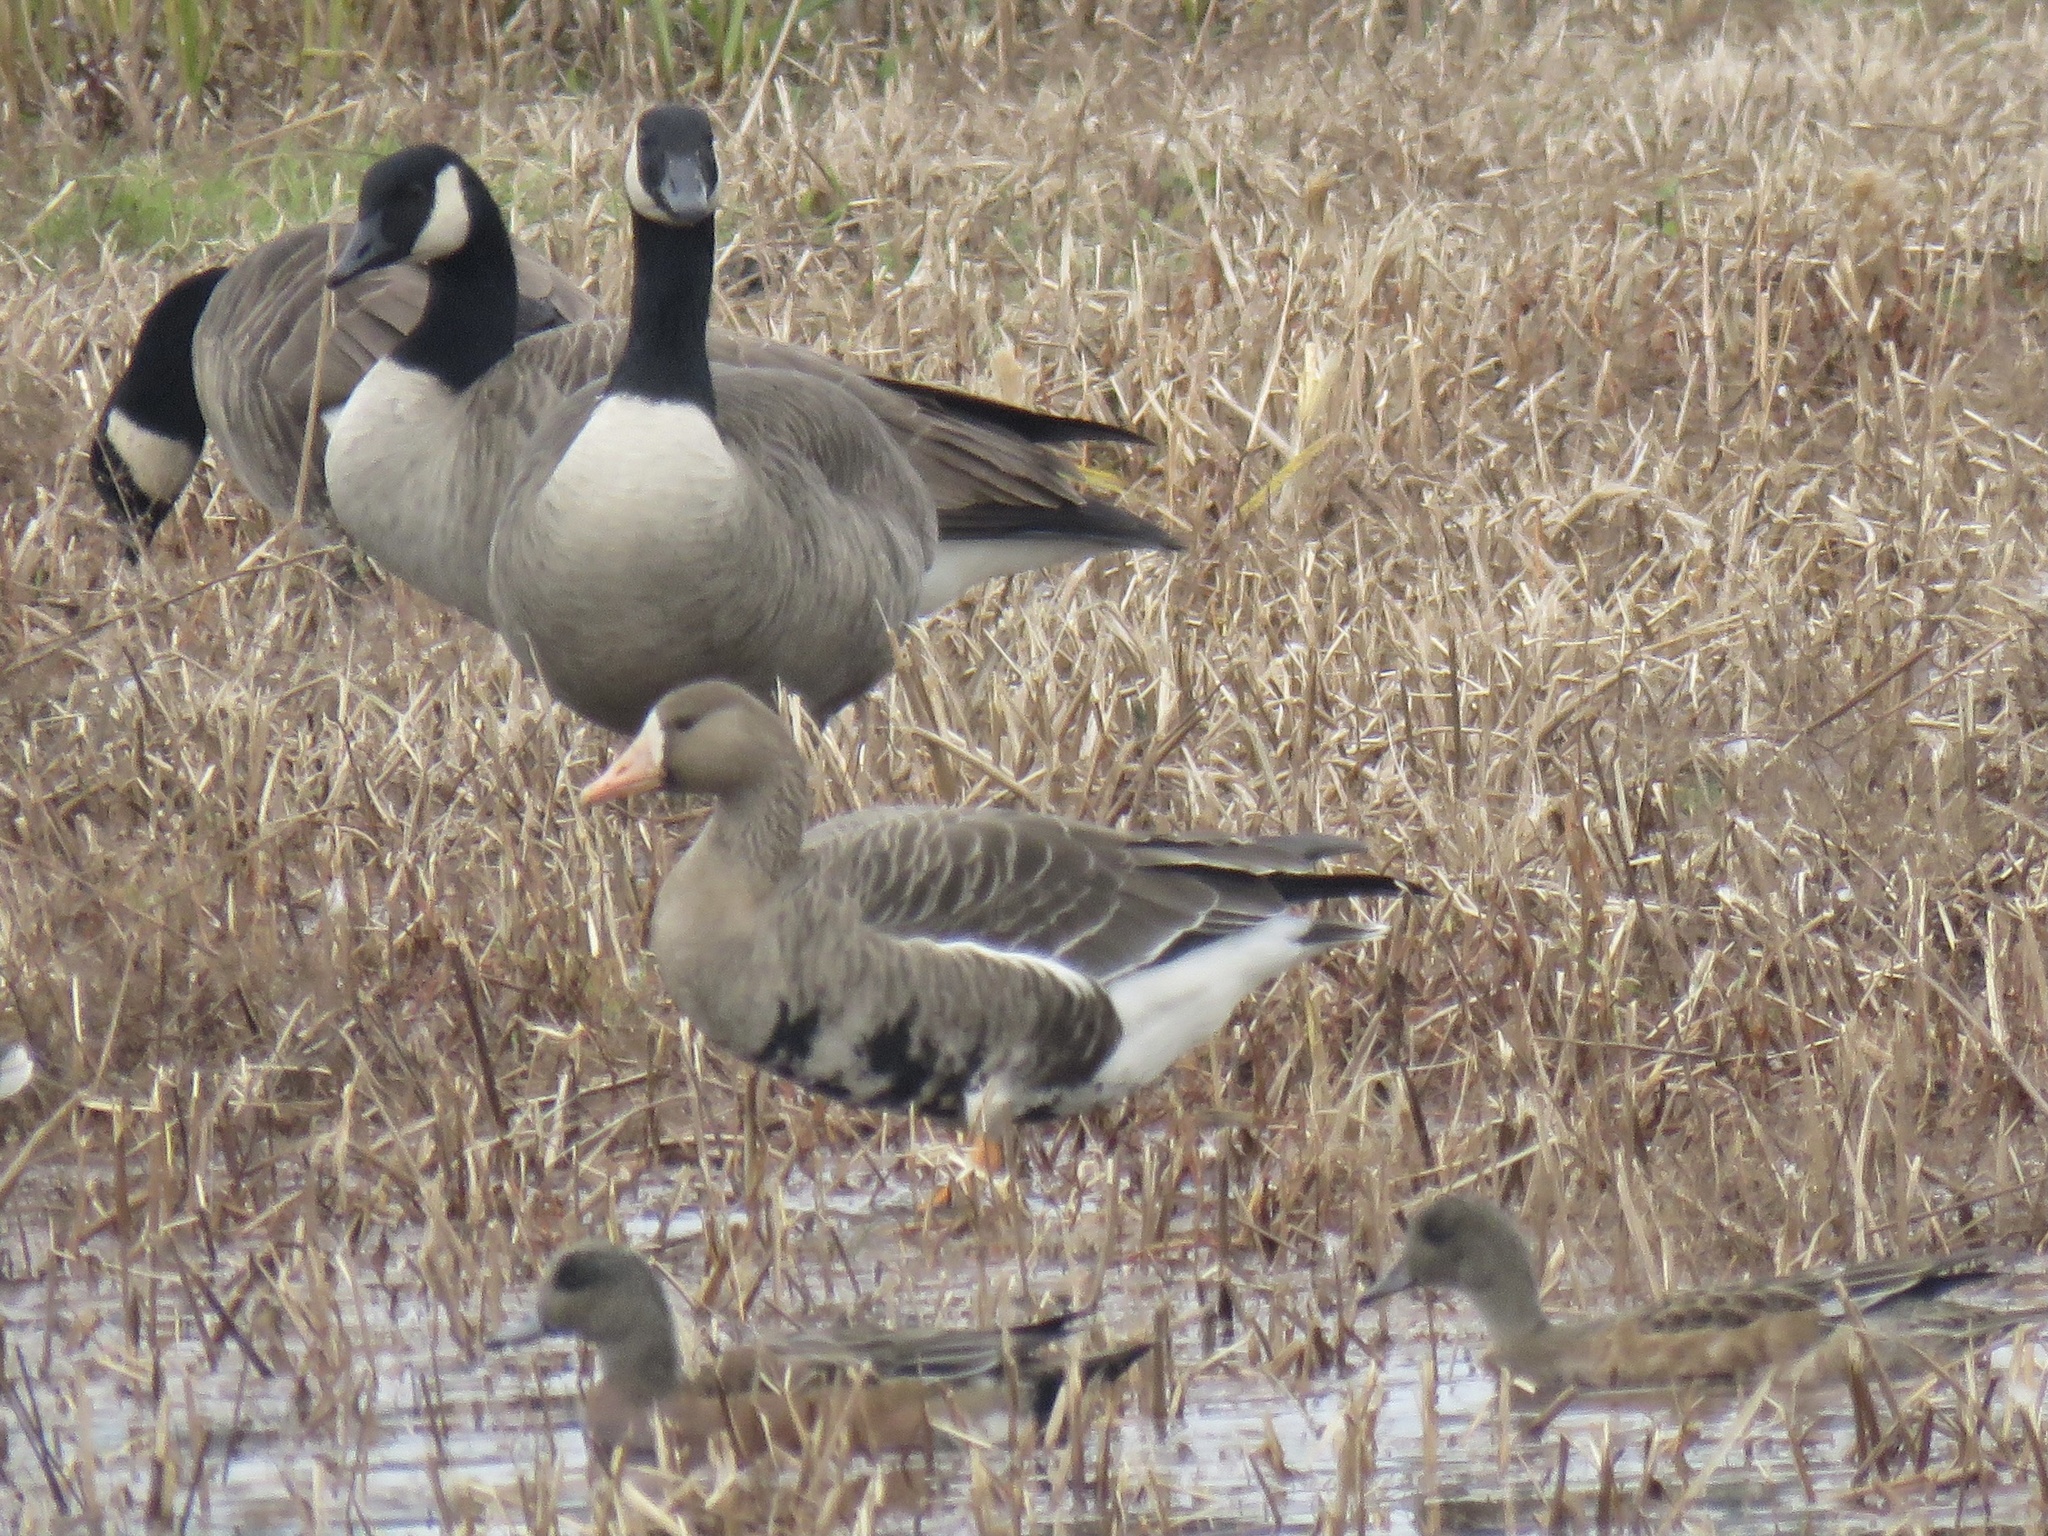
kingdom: Animalia
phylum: Chordata
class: Aves
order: Anseriformes
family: Anatidae
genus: Anser
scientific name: Anser albifrons
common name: Greater white-fronted goose
